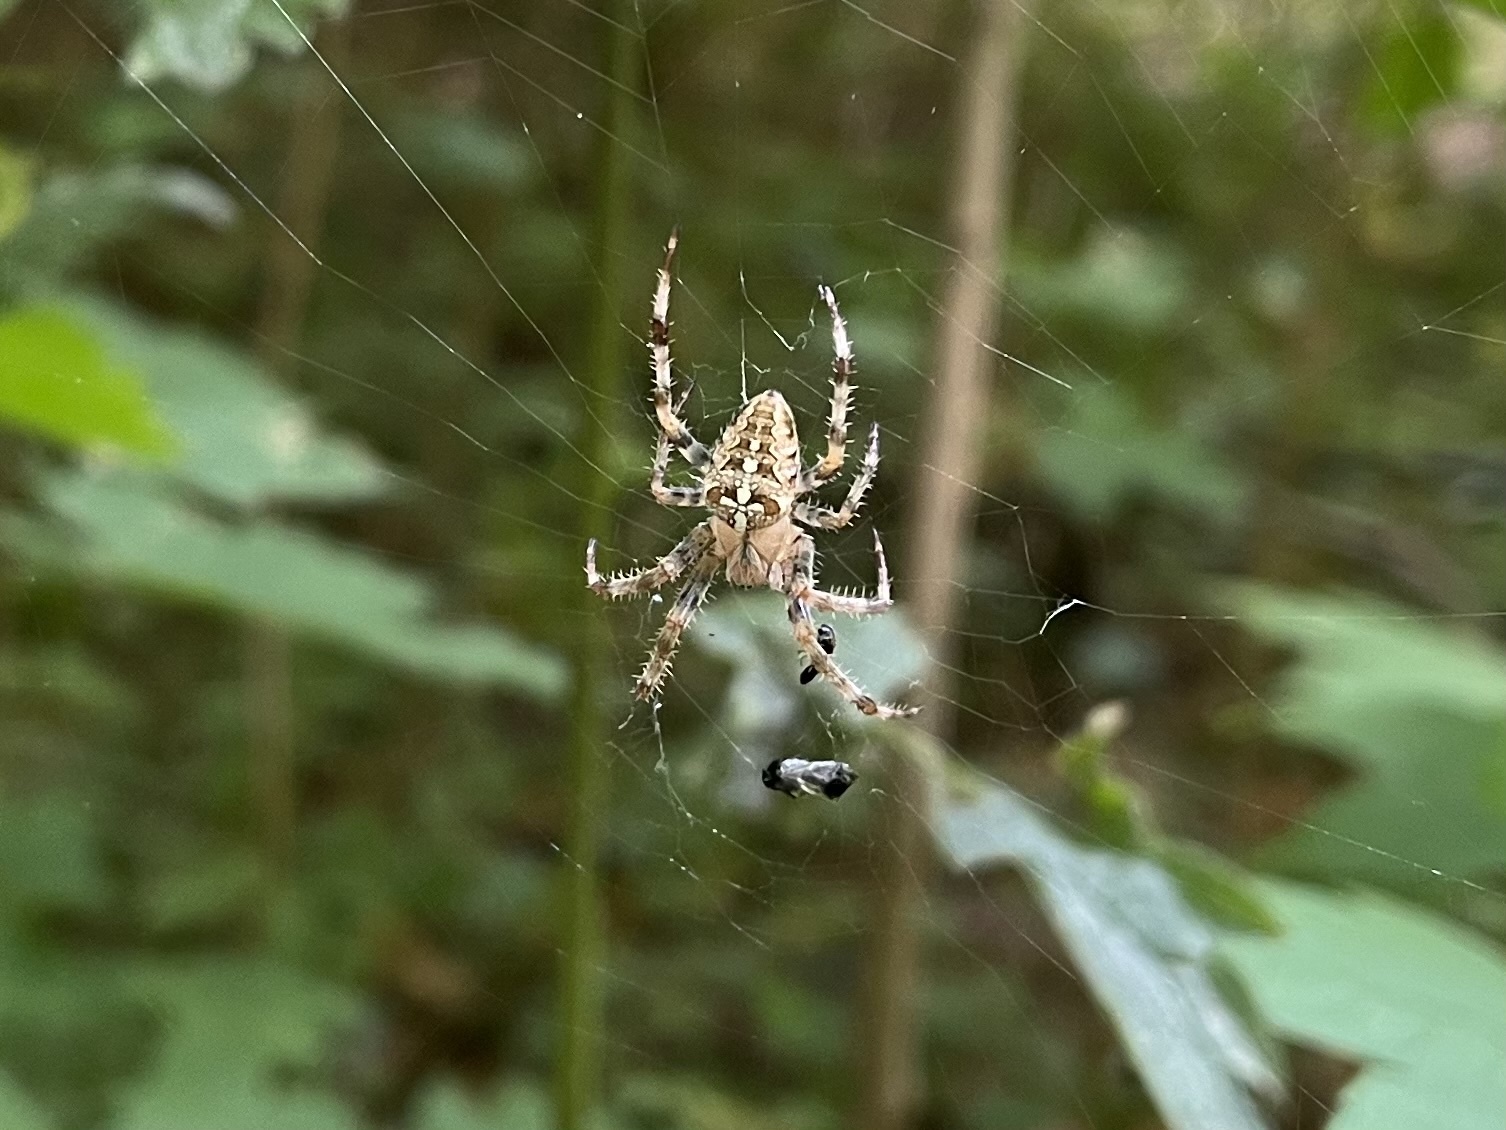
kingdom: Animalia
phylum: Arthropoda
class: Arachnida
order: Araneae
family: Araneidae
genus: Araneus
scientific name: Araneus diadematus
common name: Cross orbweaver
